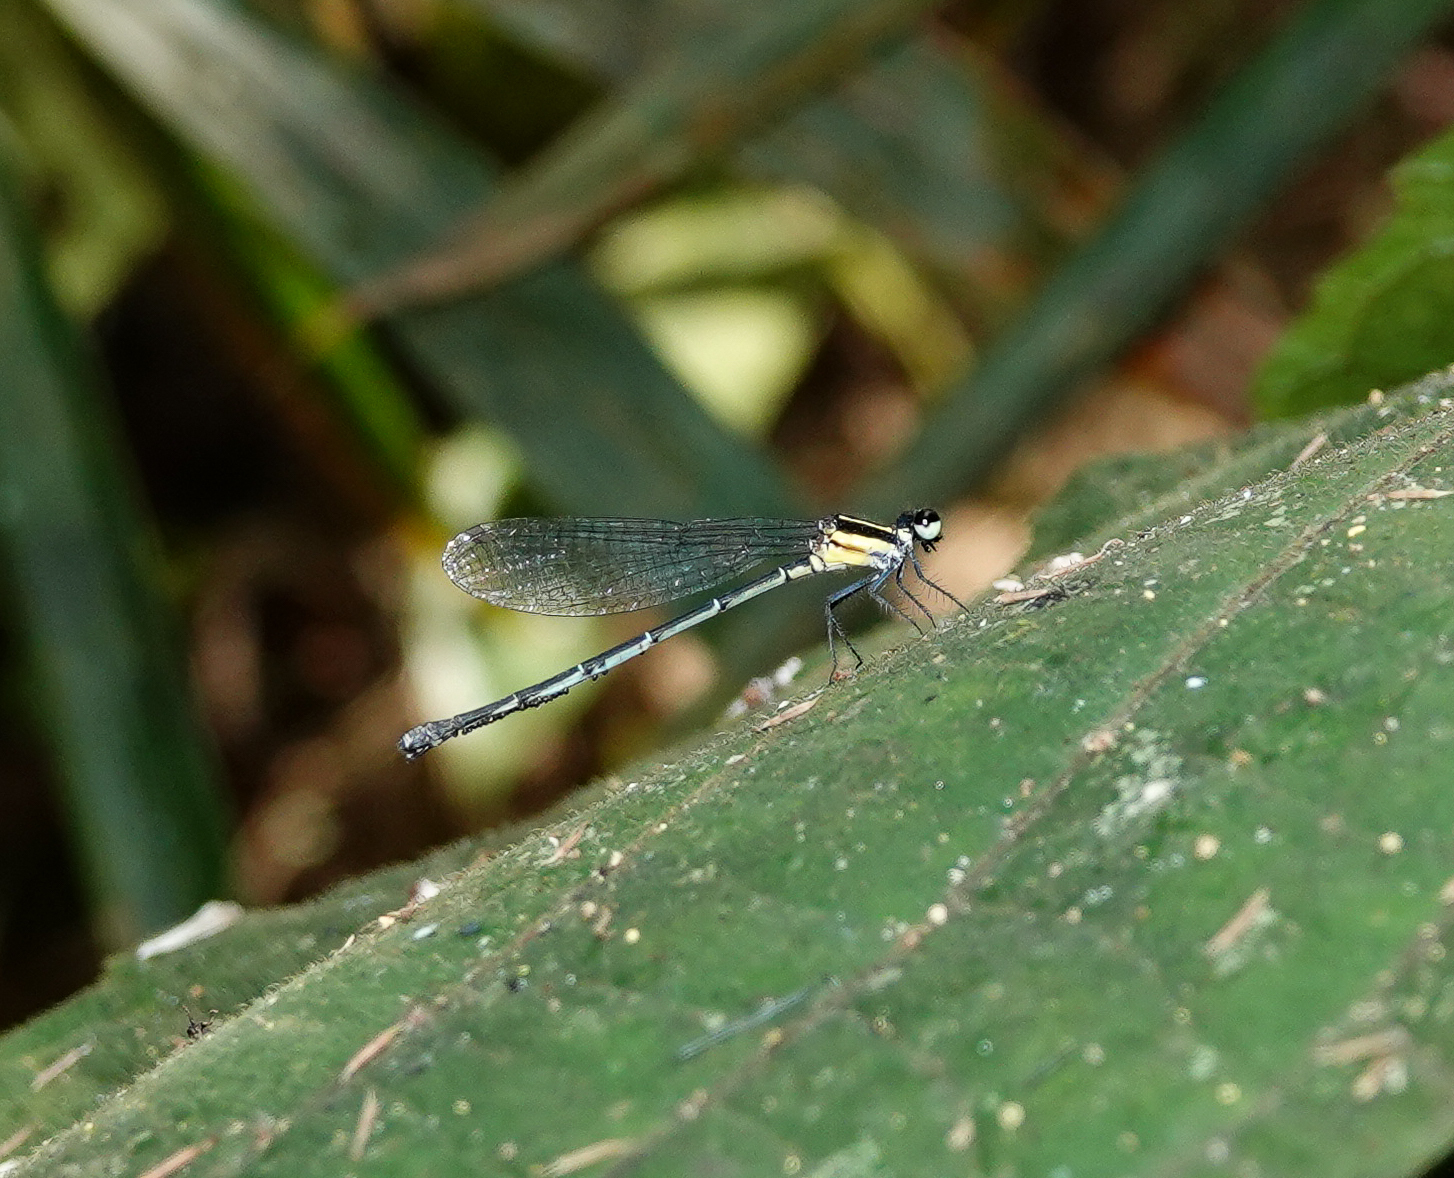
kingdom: Animalia
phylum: Arthropoda
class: Insecta
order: Odonata
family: Platycnemididae
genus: Onychargia
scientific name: Onychargia atrocyana
